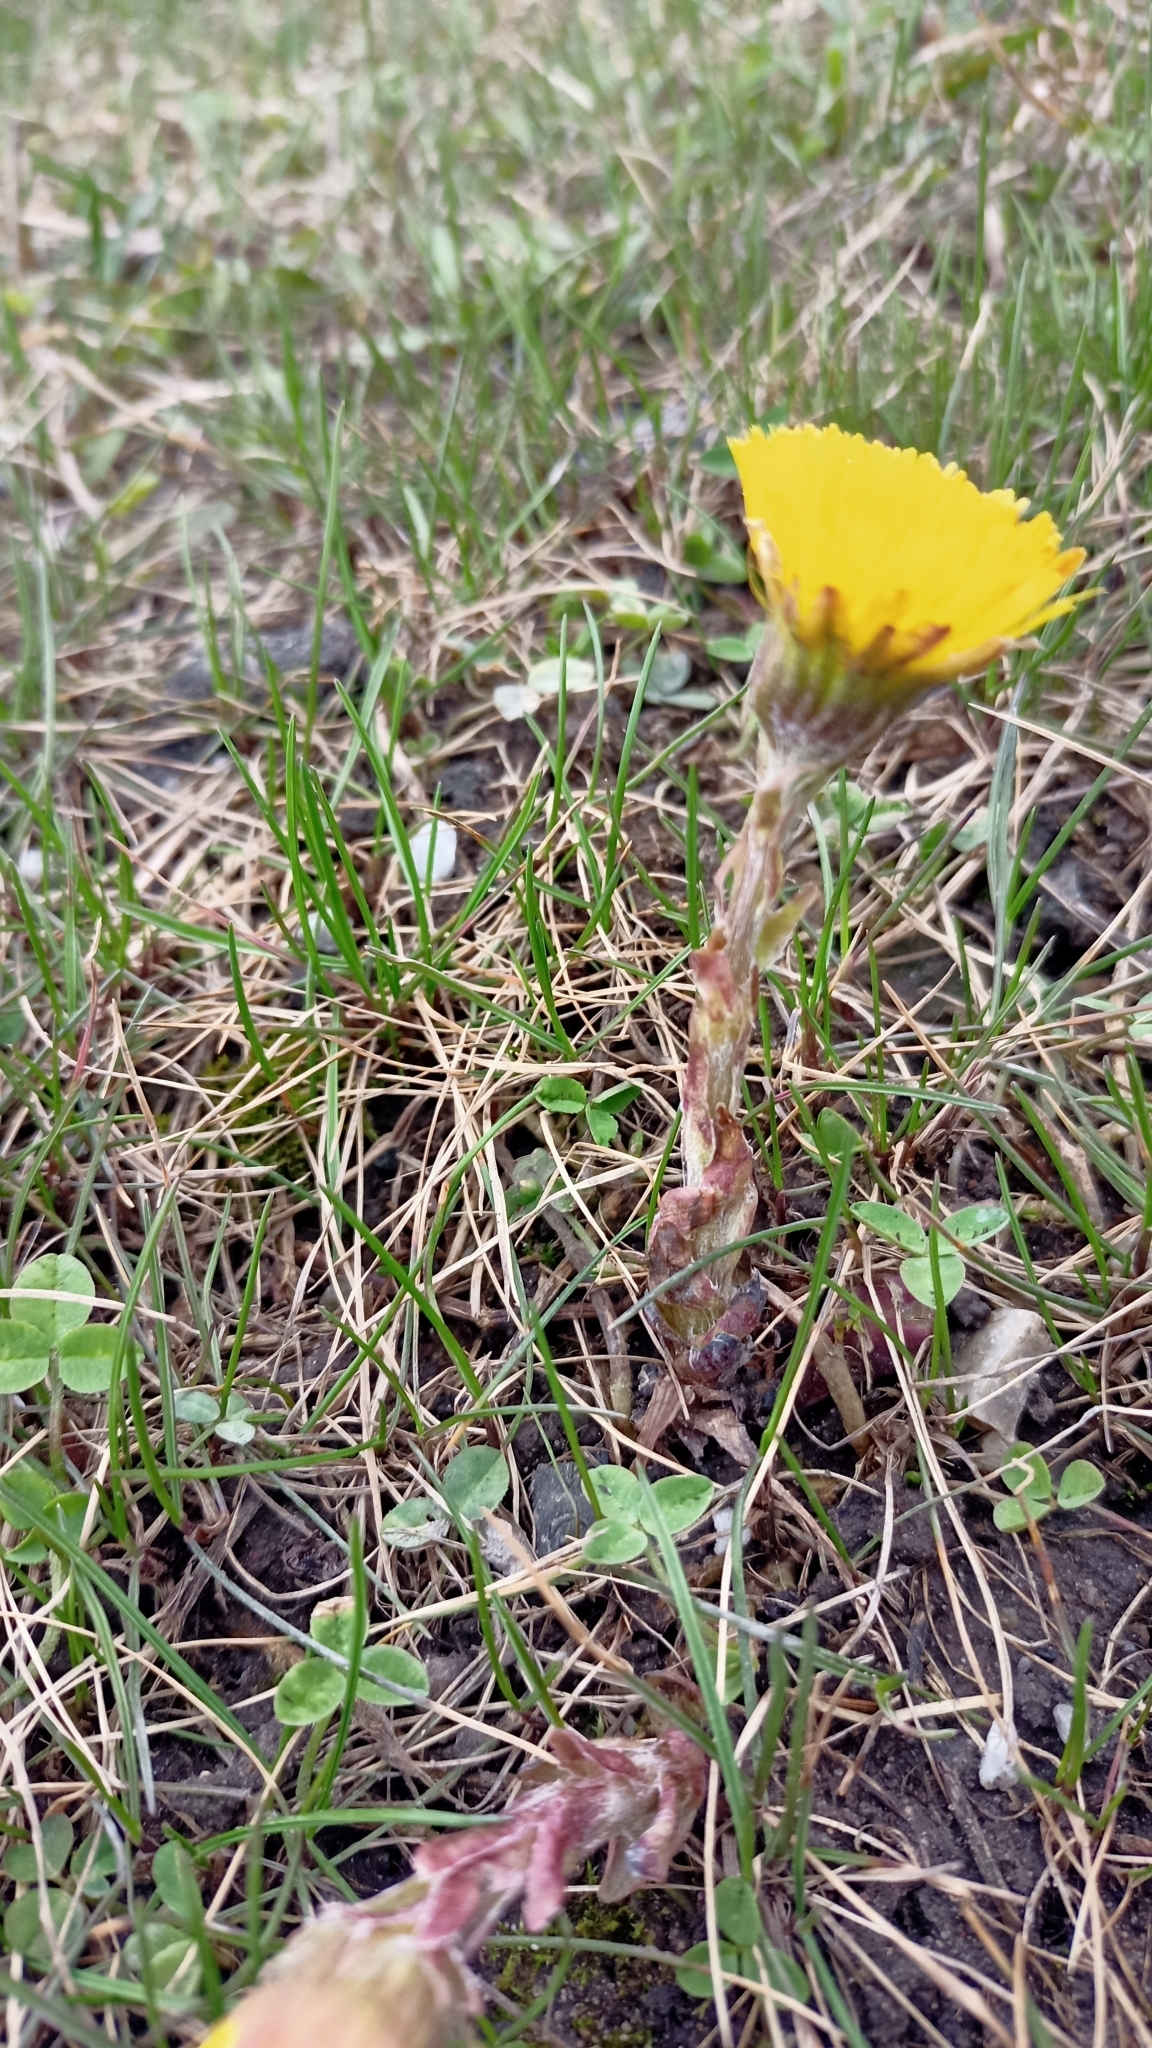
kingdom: Plantae
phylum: Tracheophyta
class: Magnoliopsida
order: Asterales
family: Asteraceae
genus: Tussilago
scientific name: Tussilago farfara
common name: Coltsfoot
